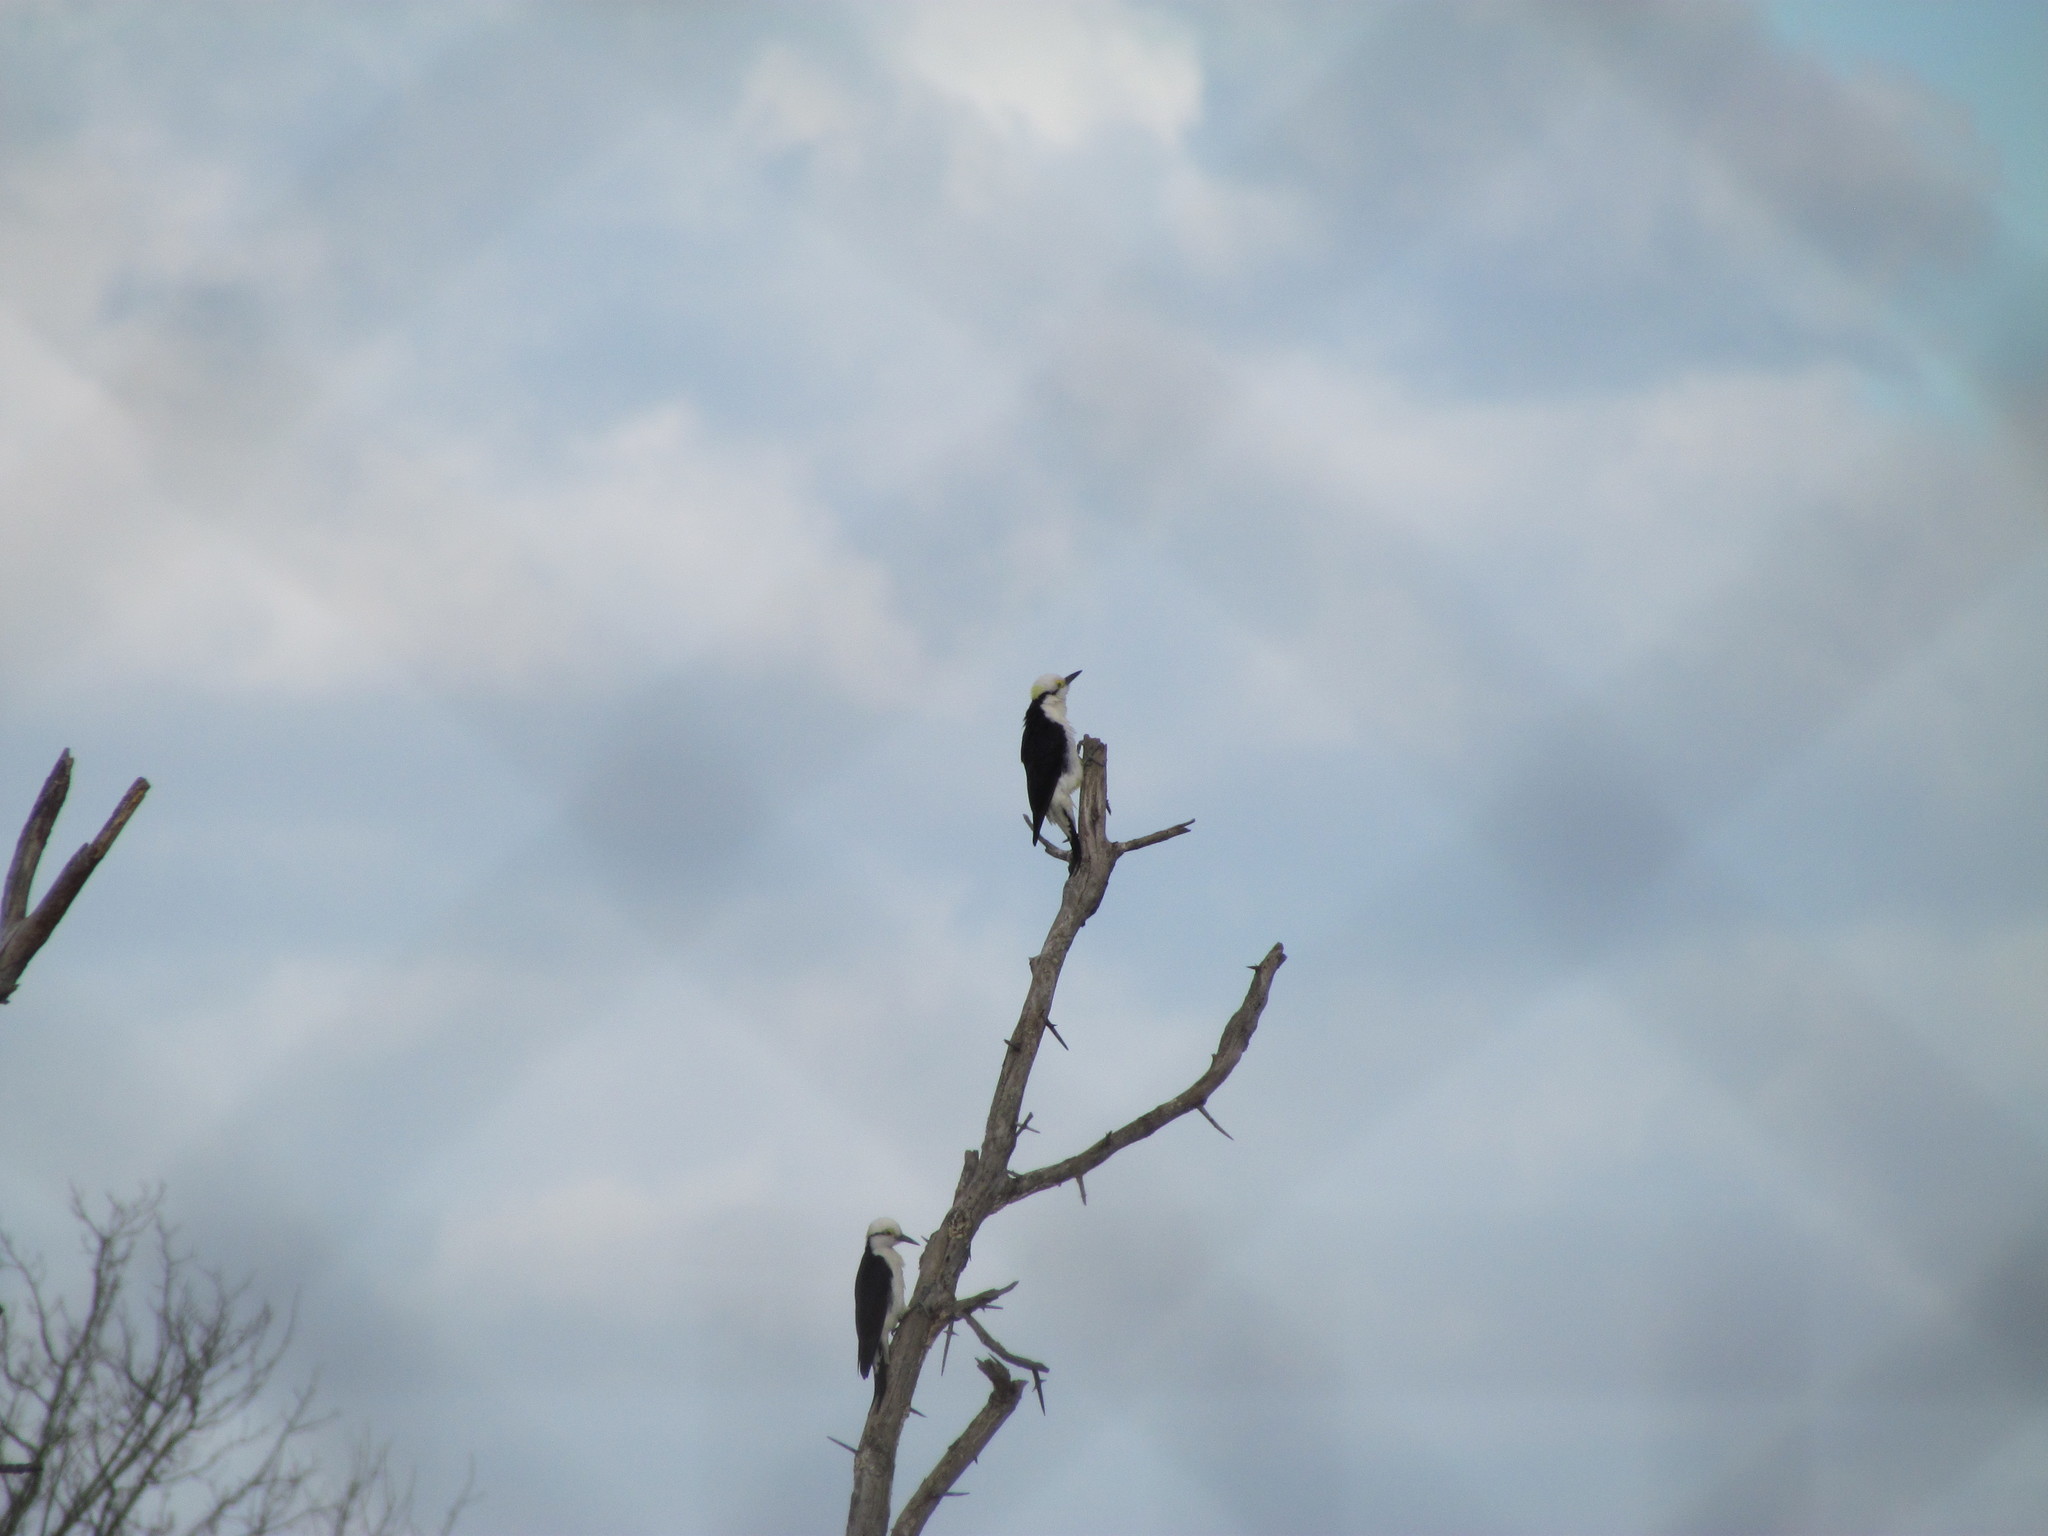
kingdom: Animalia
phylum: Chordata
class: Aves
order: Piciformes
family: Picidae
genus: Melanerpes
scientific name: Melanerpes candidus
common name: White woodpecker
